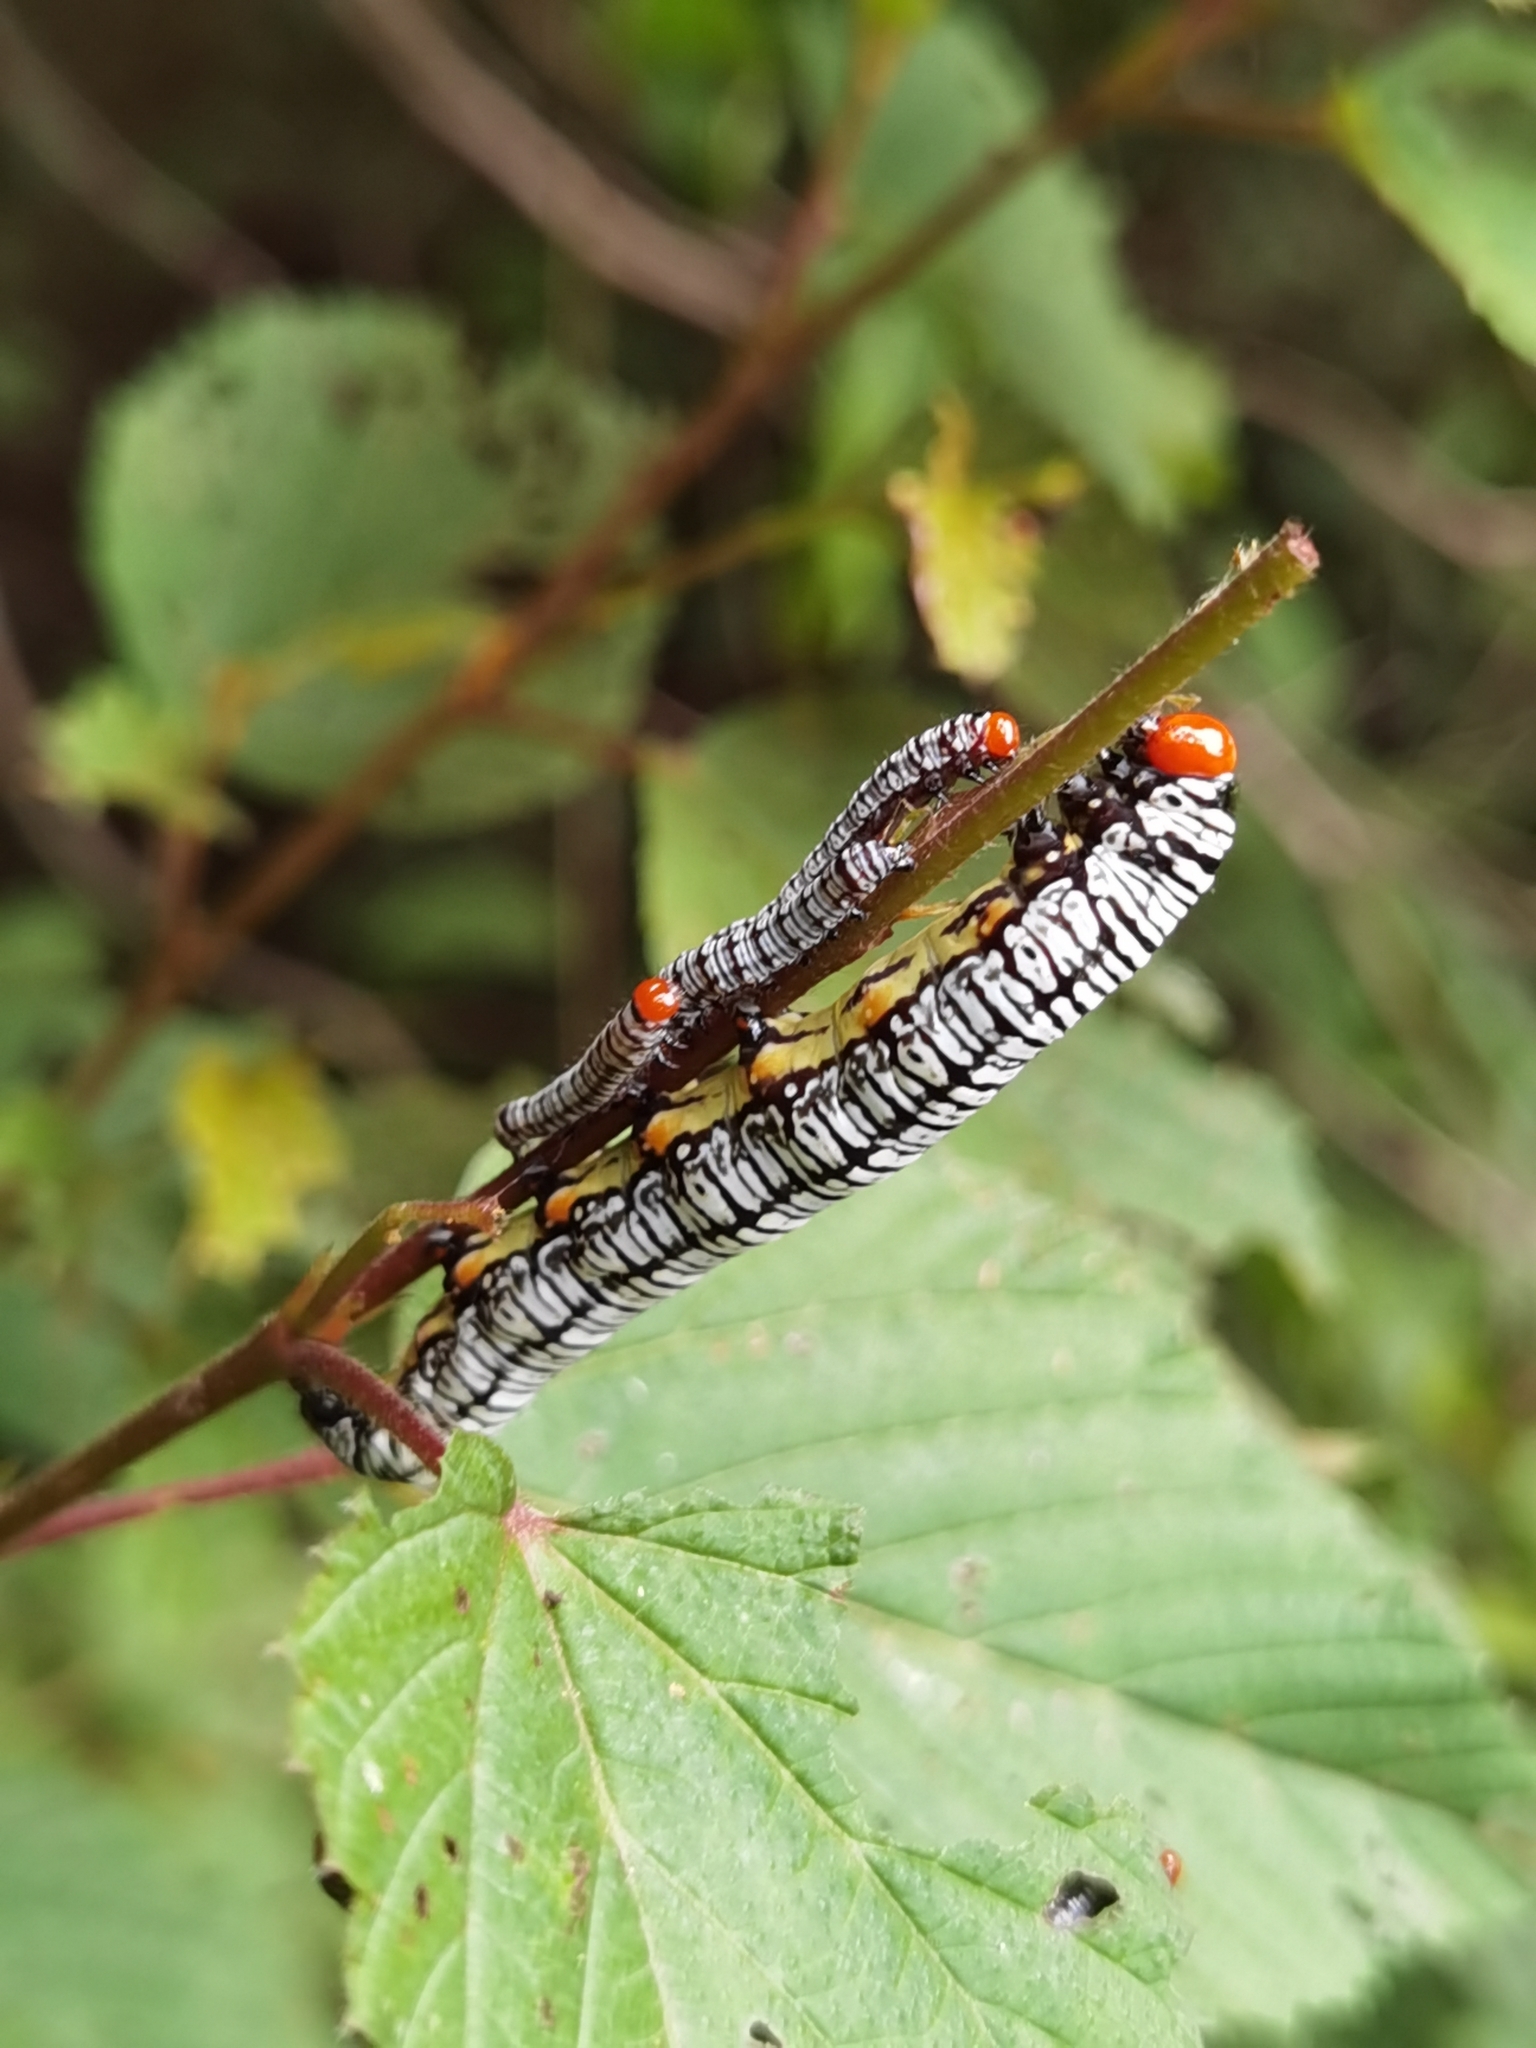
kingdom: Animalia
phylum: Arthropoda
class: Insecta
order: Lepidoptera
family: Erebidae
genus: Diphthera
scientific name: Diphthera festiva
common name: Hieroglyphic moth
